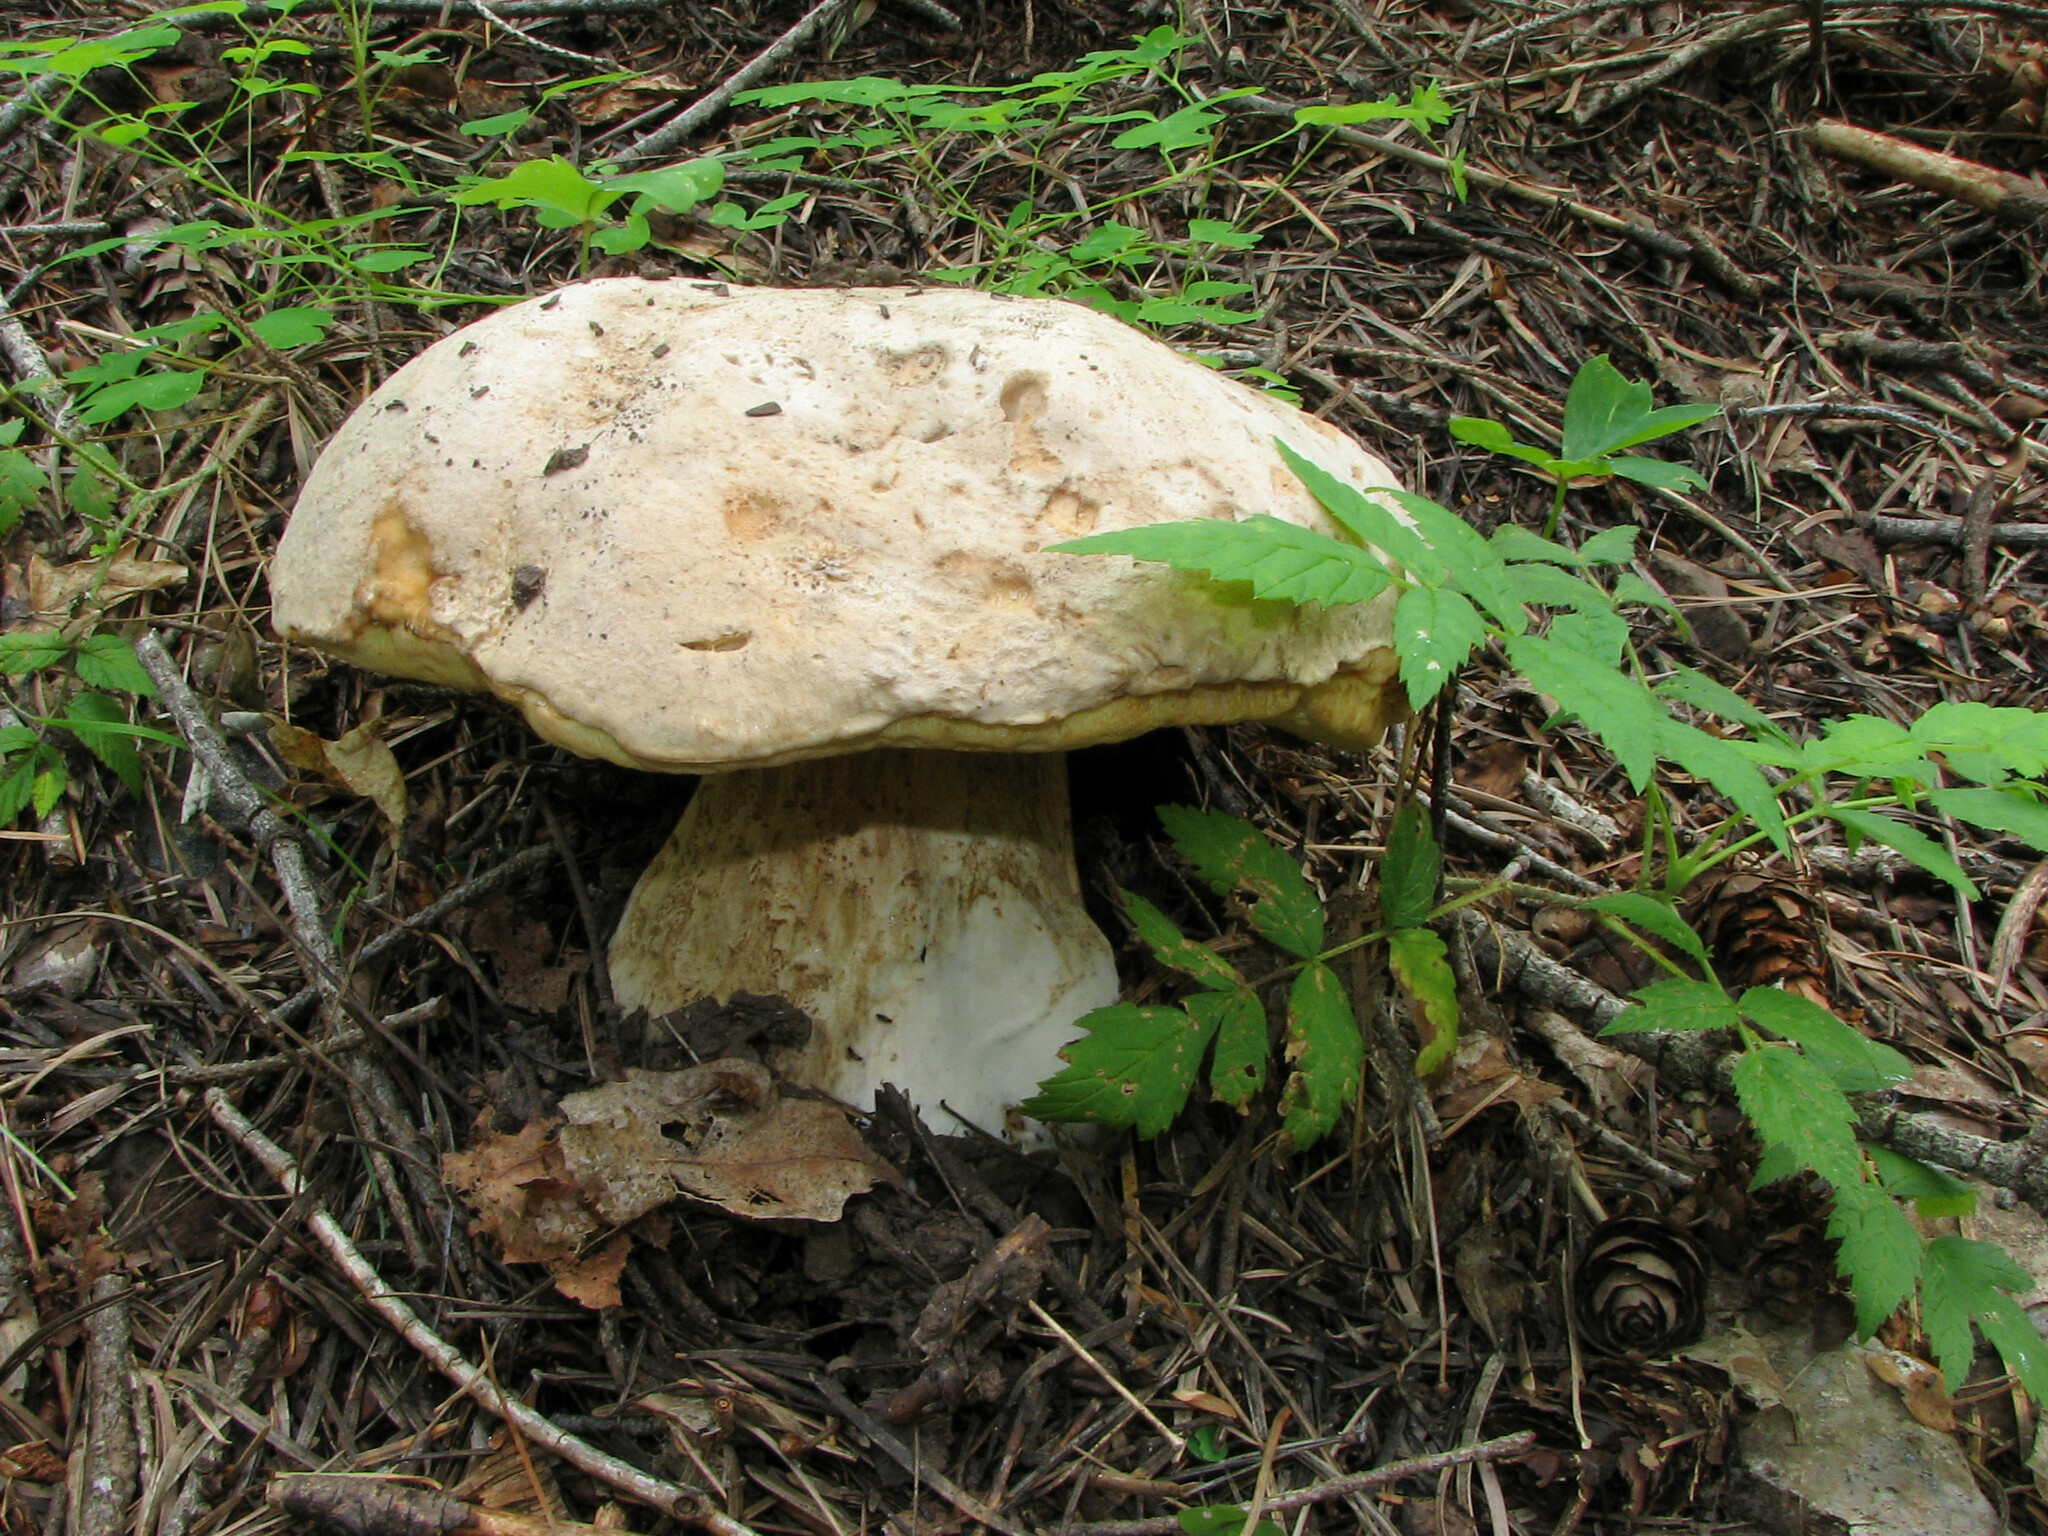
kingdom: Fungi
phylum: Basidiomycota
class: Agaricomycetes
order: Boletales
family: Boletaceae
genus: Boletus
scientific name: Boletus barrowsii
